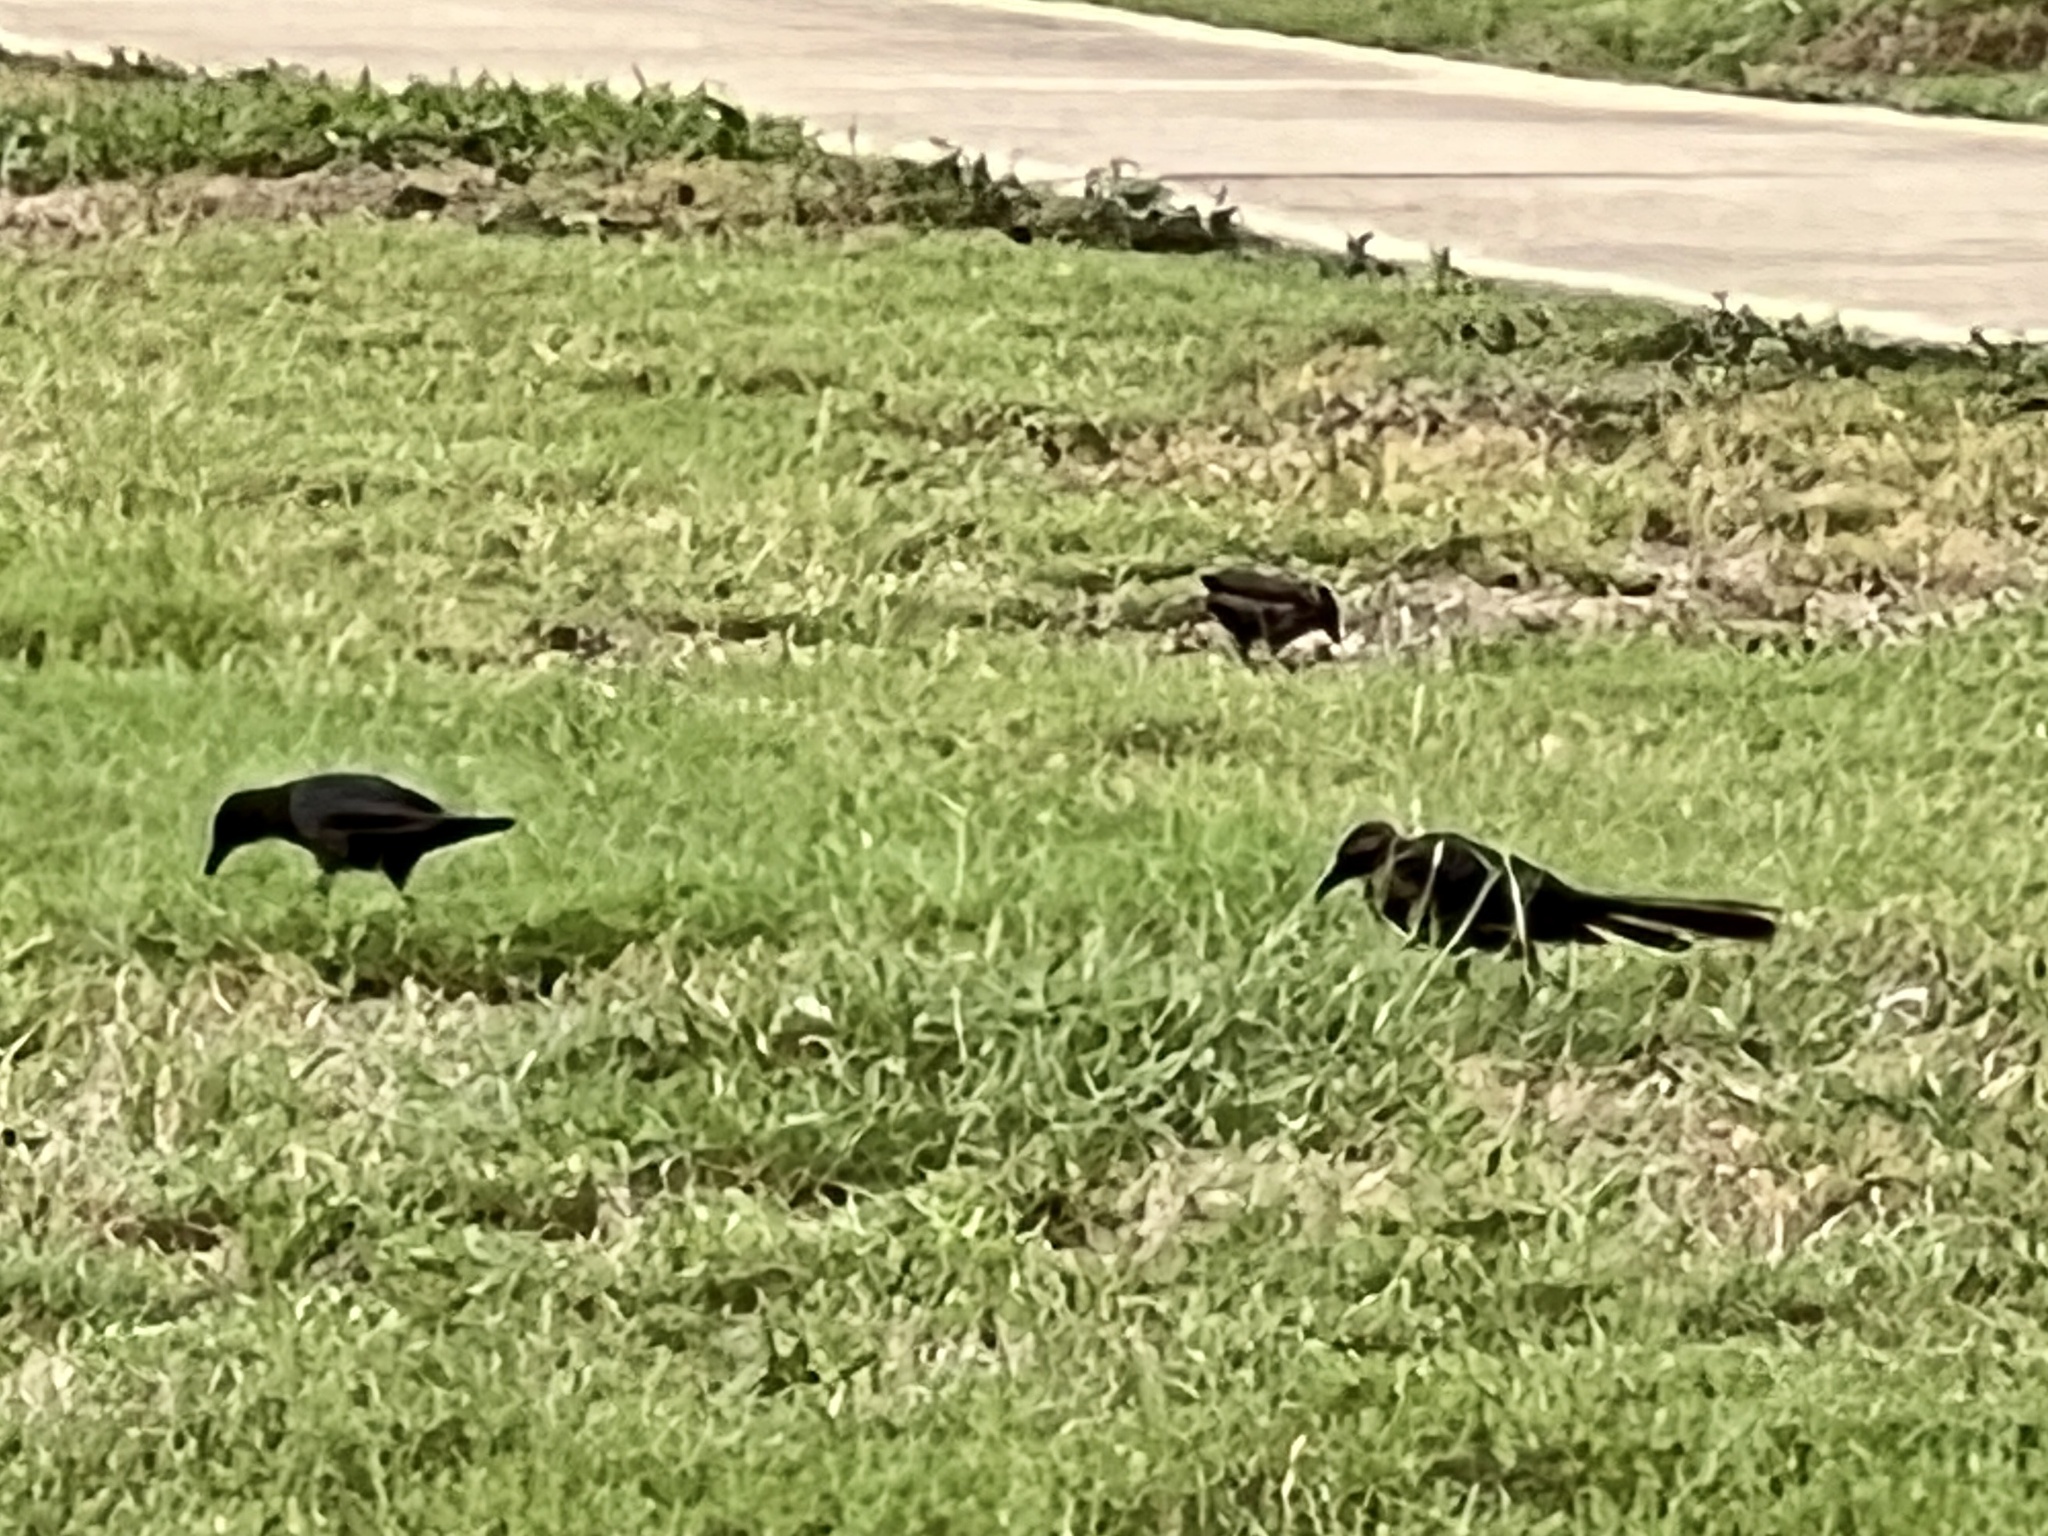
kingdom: Animalia
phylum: Chordata
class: Aves
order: Passeriformes
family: Icteridae
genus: Quiscalus
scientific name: Quiscalus mexicanus
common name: Great-tailed grackle
